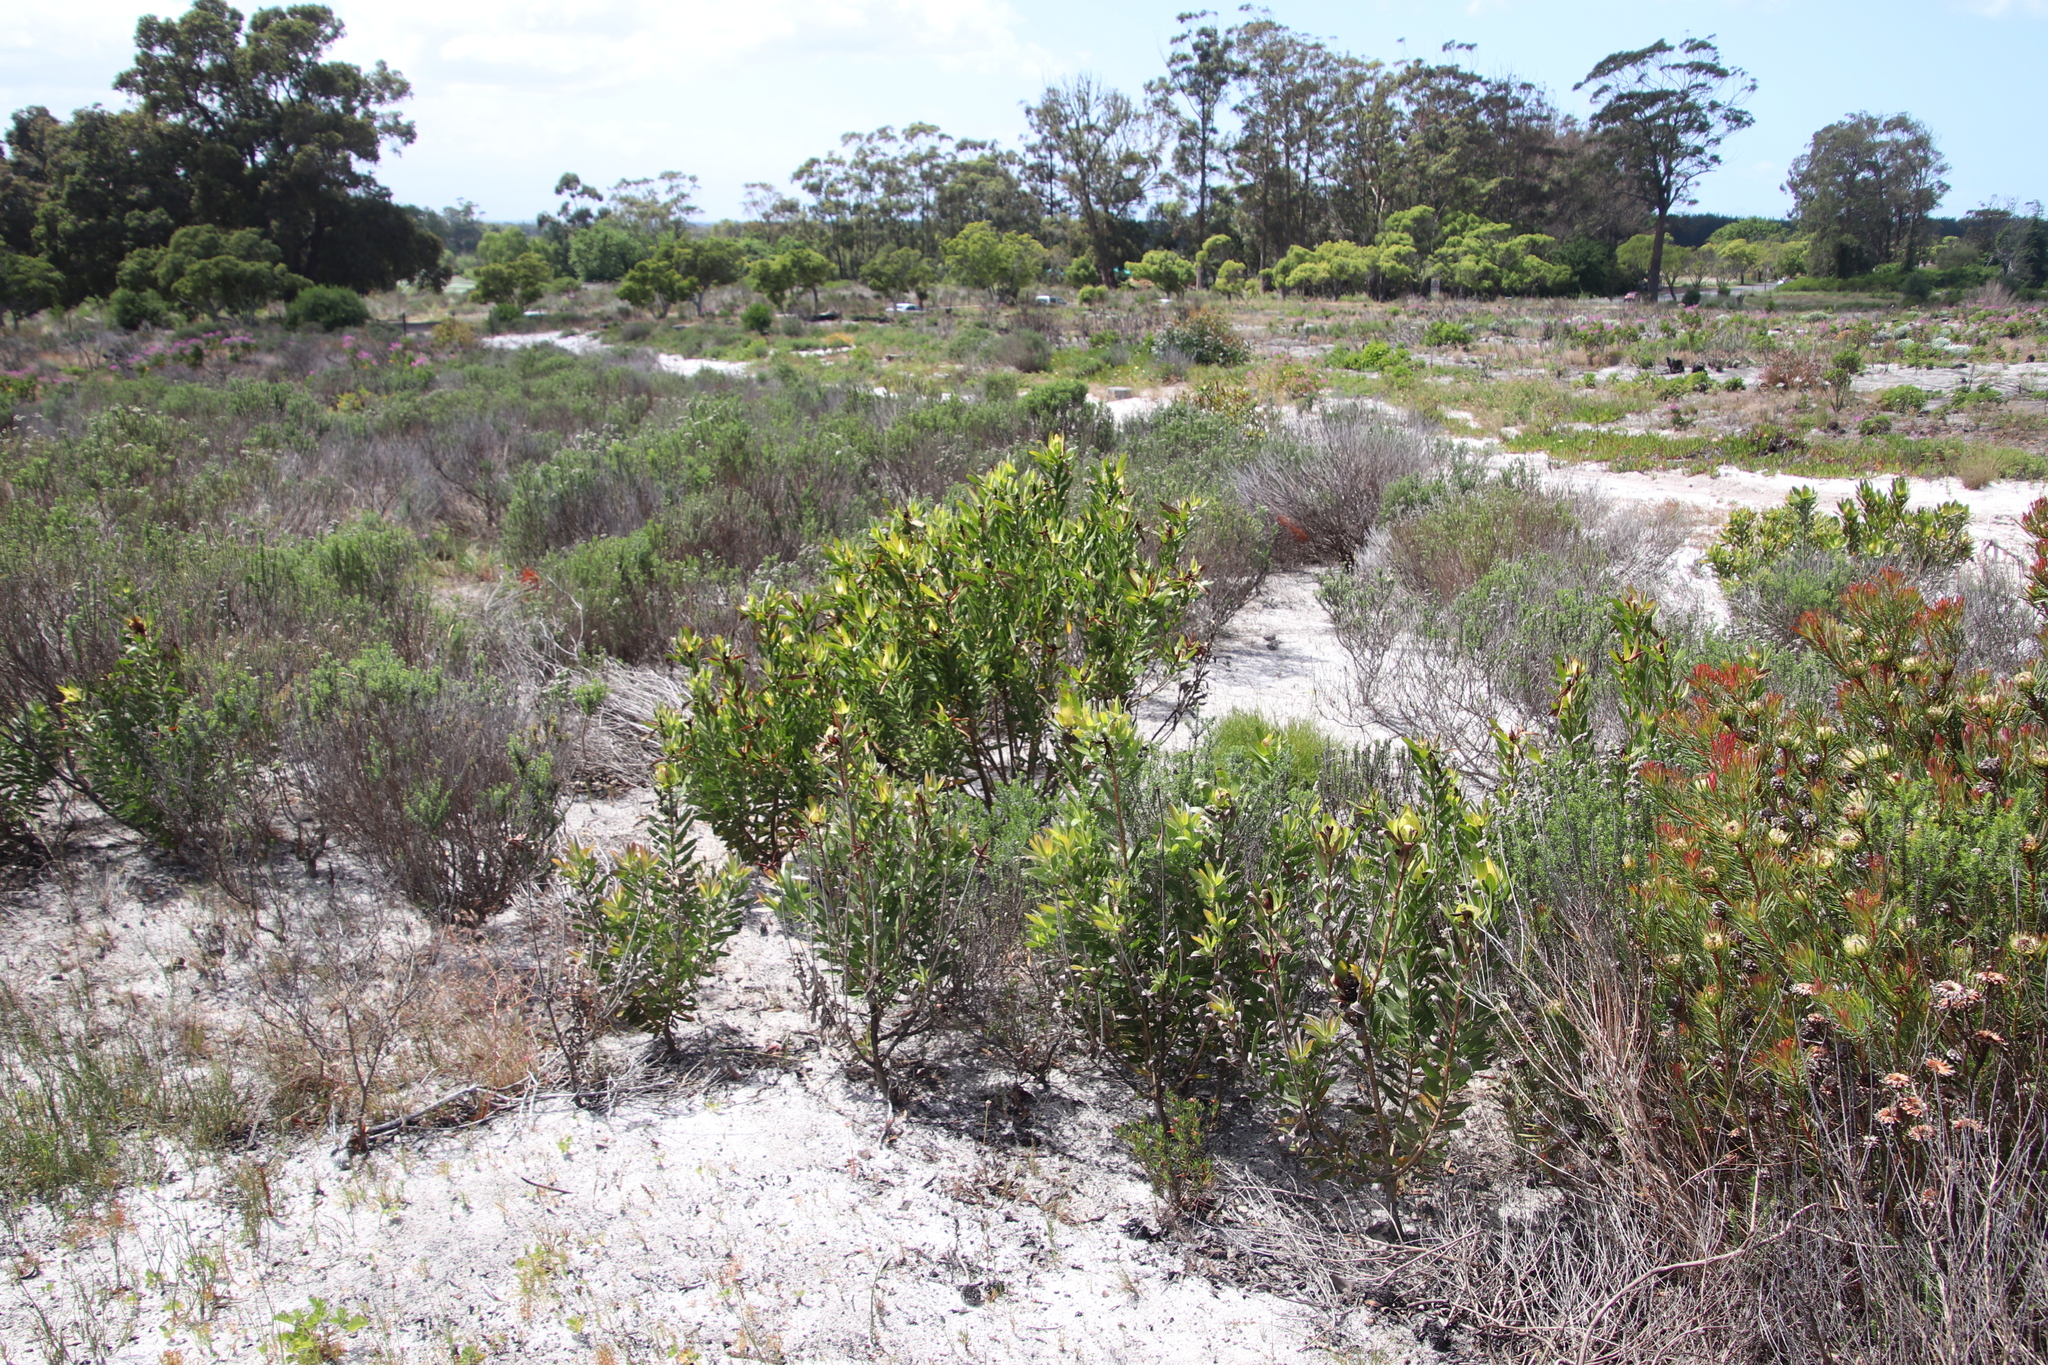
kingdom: Plantae
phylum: Tracheophyta
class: Magnoliopsida
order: Proteales
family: Proteaceae
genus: Leucadendron
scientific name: Leucadendron laureolum
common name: Golden sunshinebush
